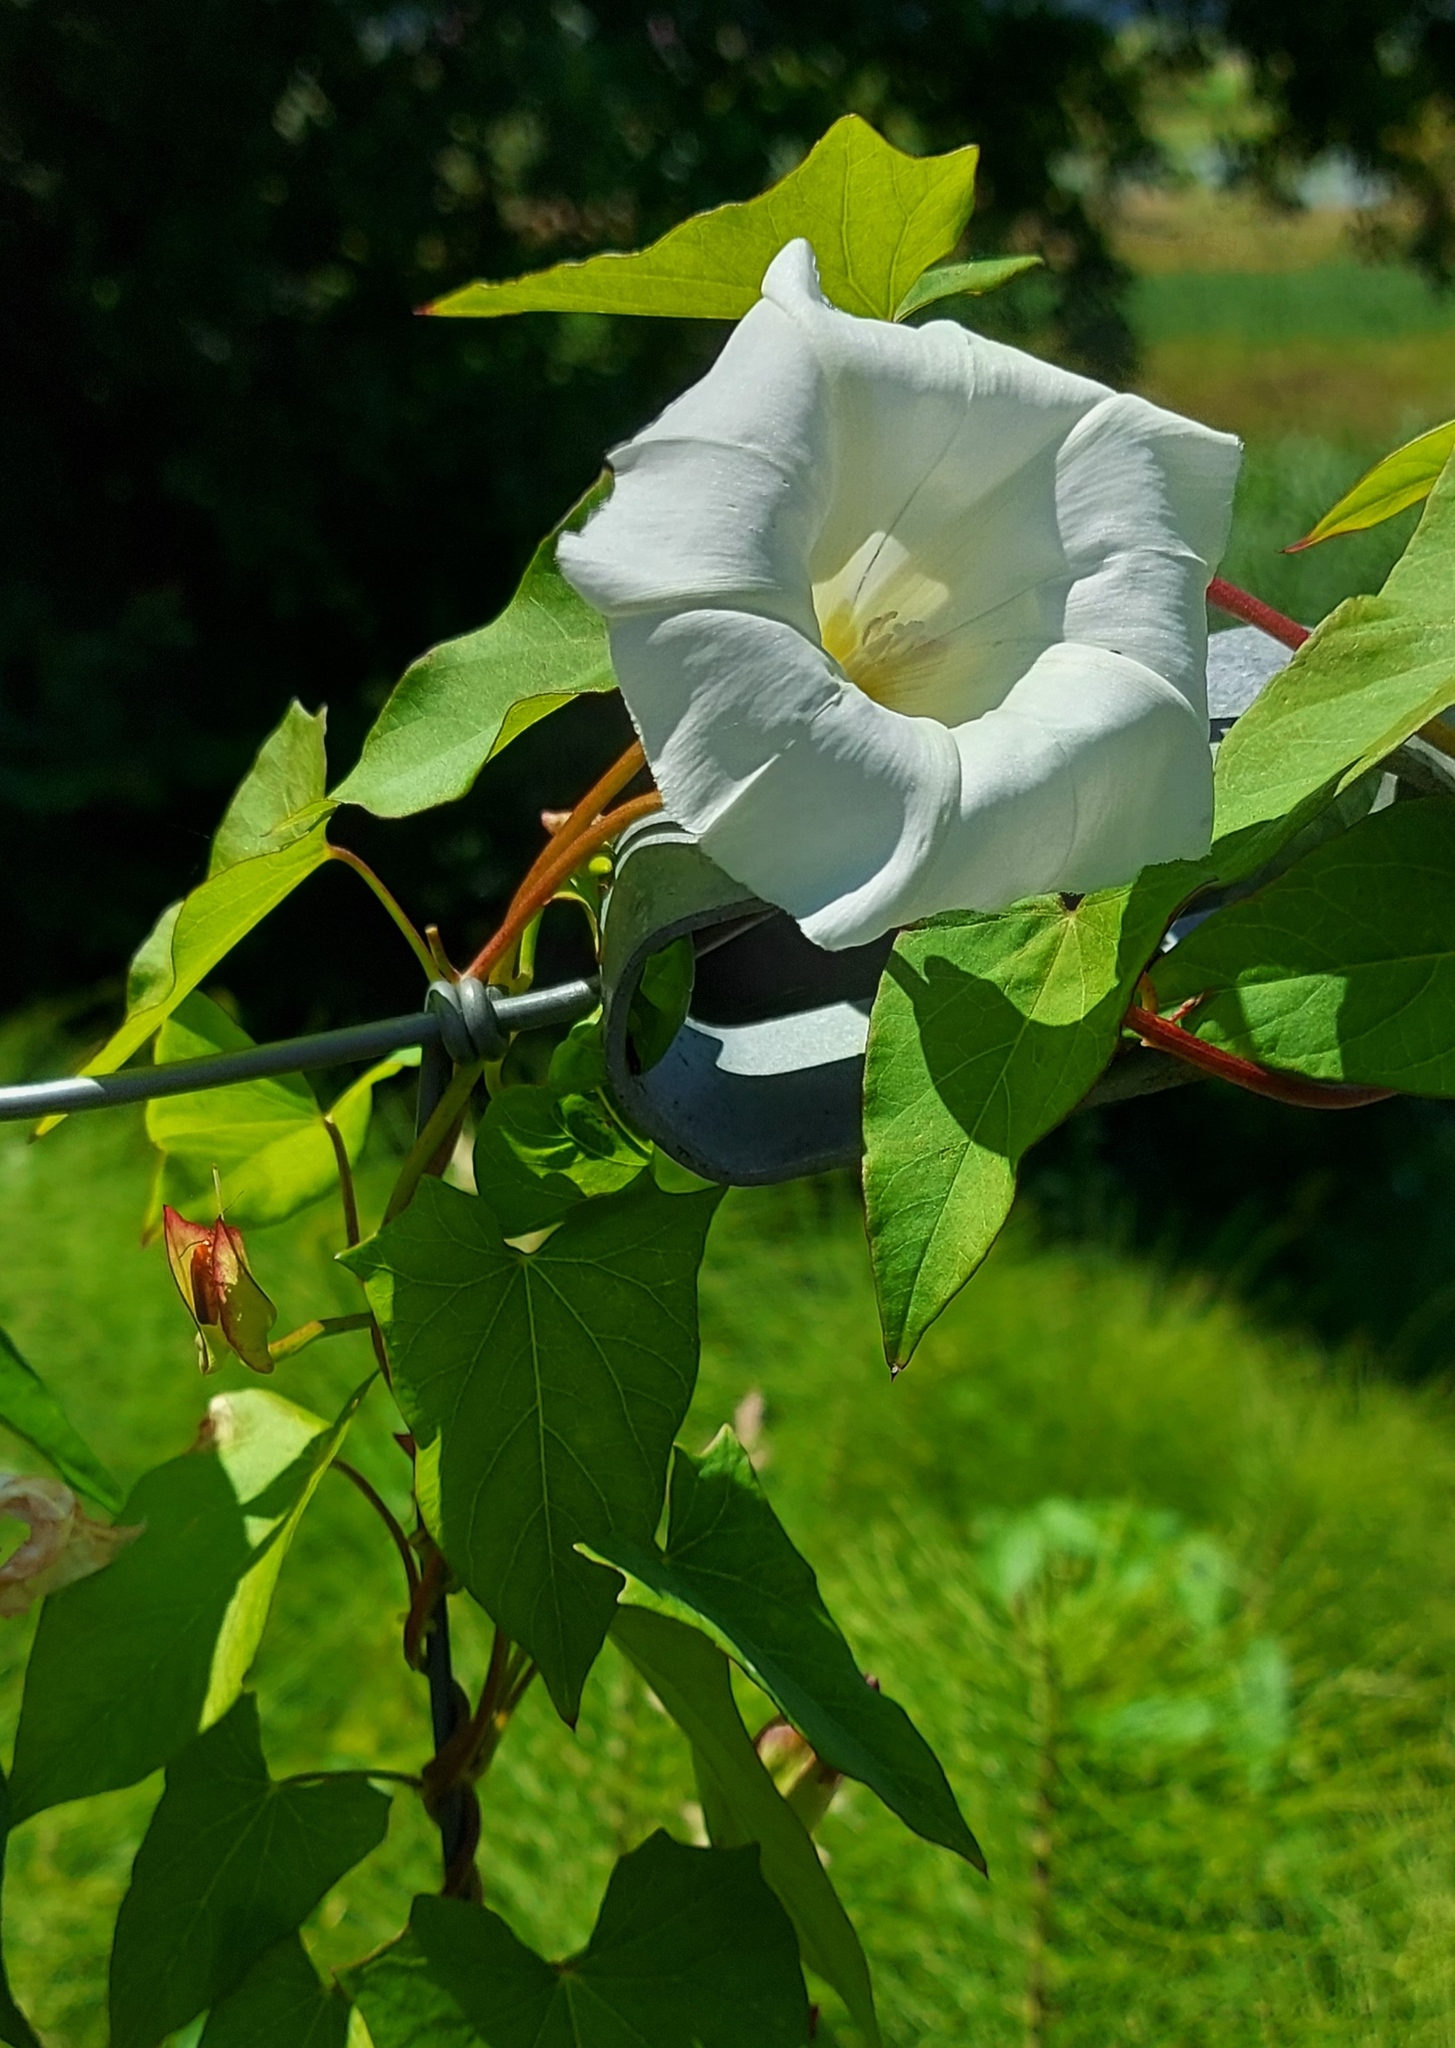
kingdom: Plantae
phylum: Tracheophyta
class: Magnoliopsida
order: Solanales
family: Convolvulaceae
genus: Calystegia
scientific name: Calystegia sepium
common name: Hedge bindweed
